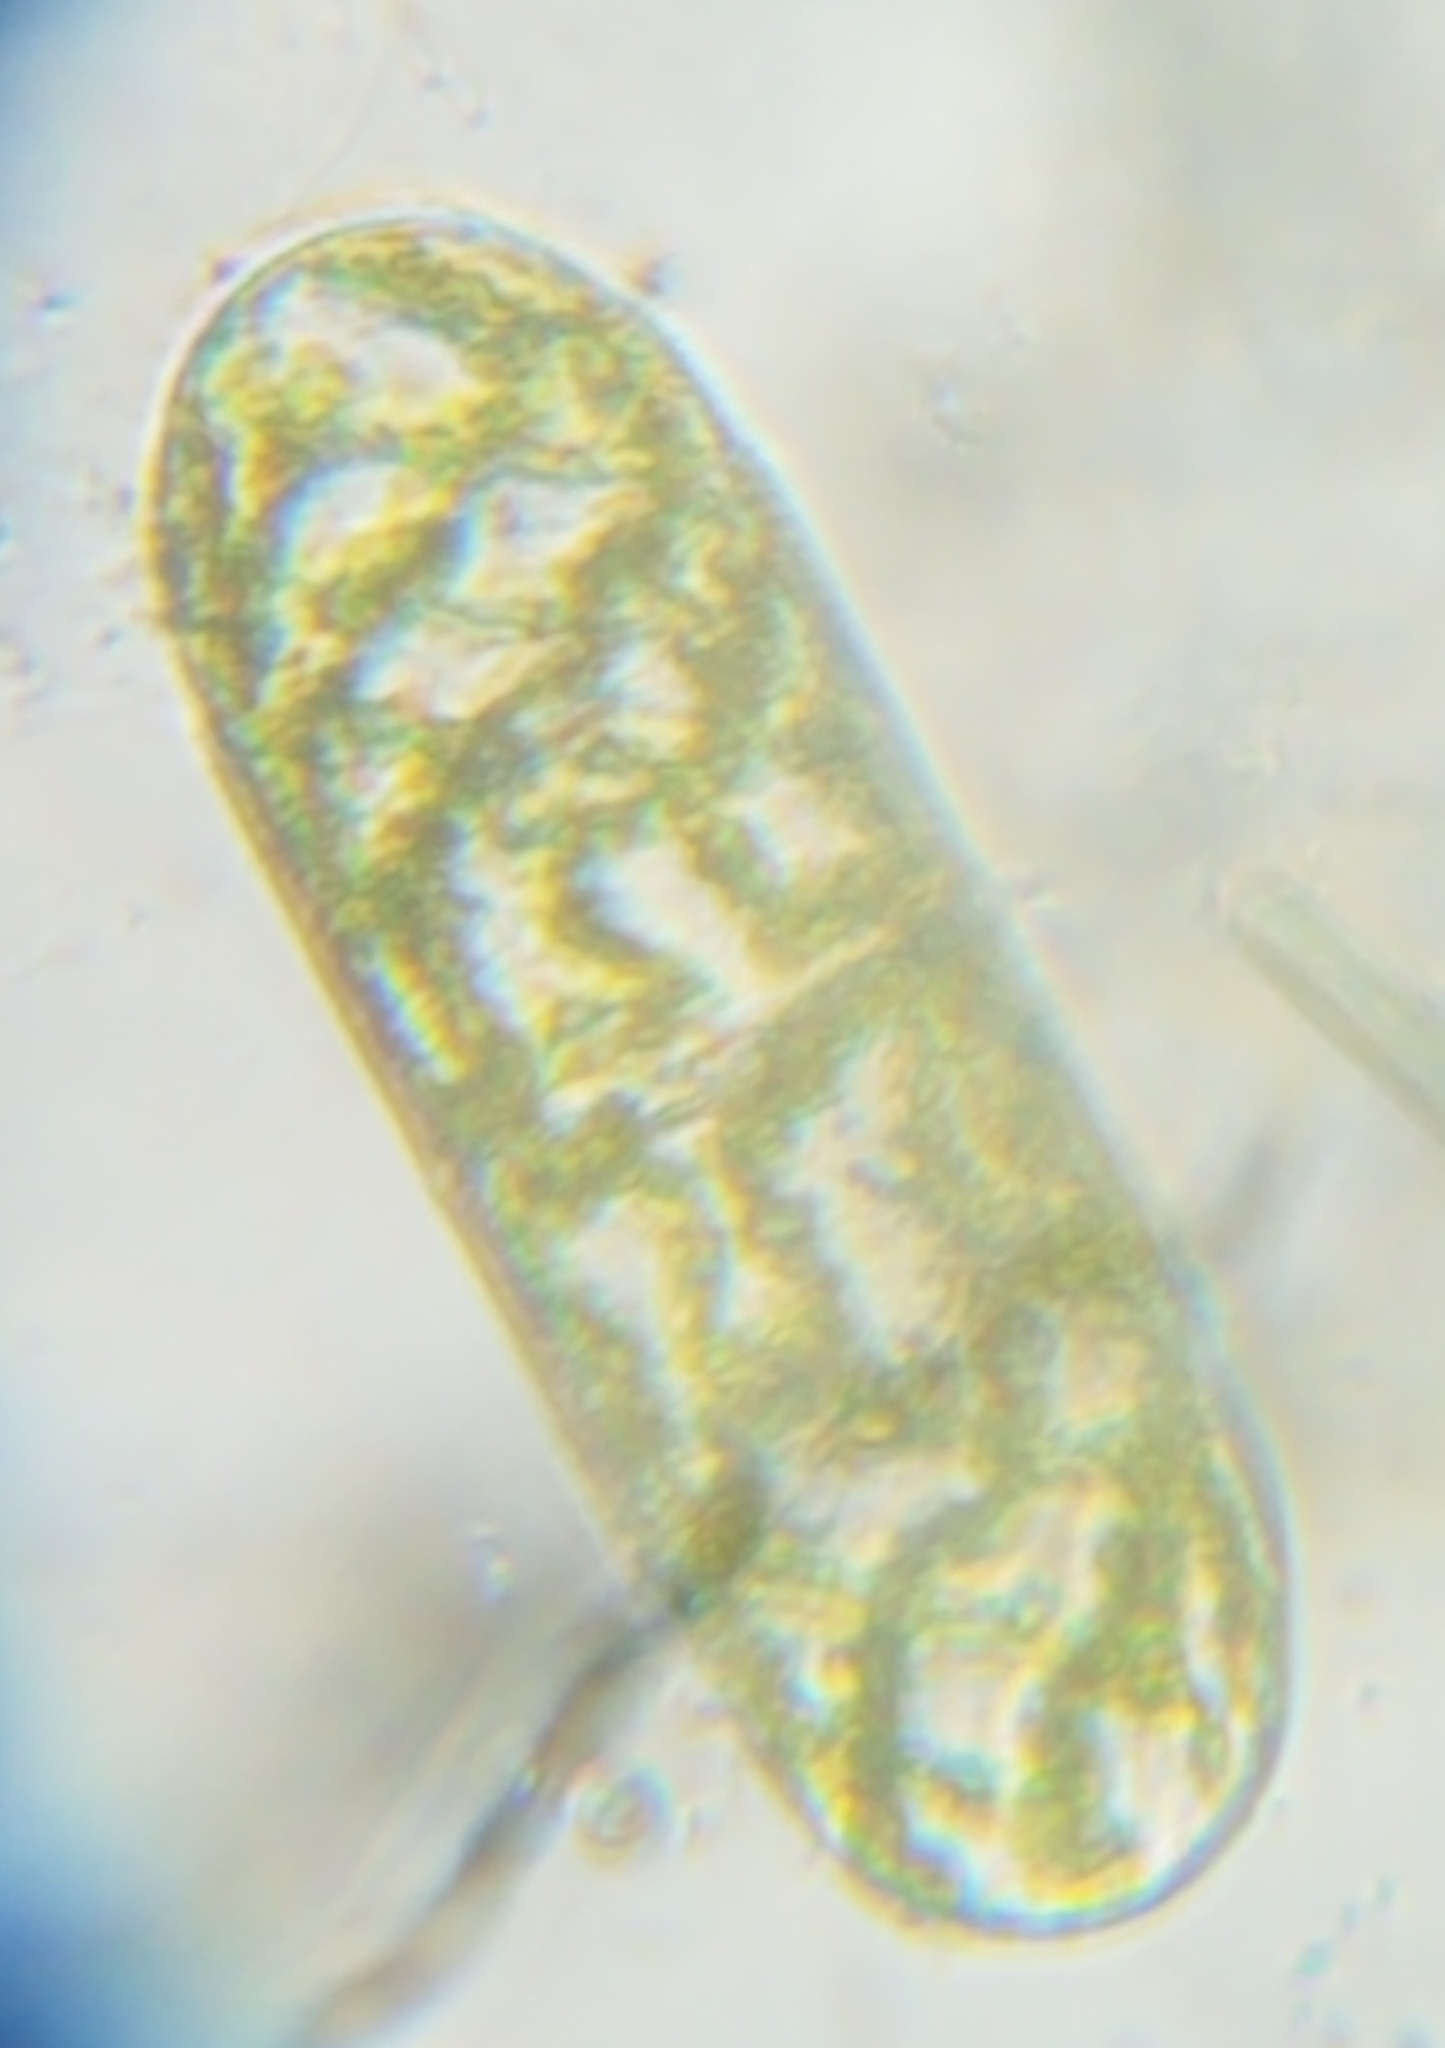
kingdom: Plantae
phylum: Charophyta
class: Zygnematophyceae
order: Zygnematales
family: Zygnemataceae
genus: Spirogyra
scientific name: Spirogyra
